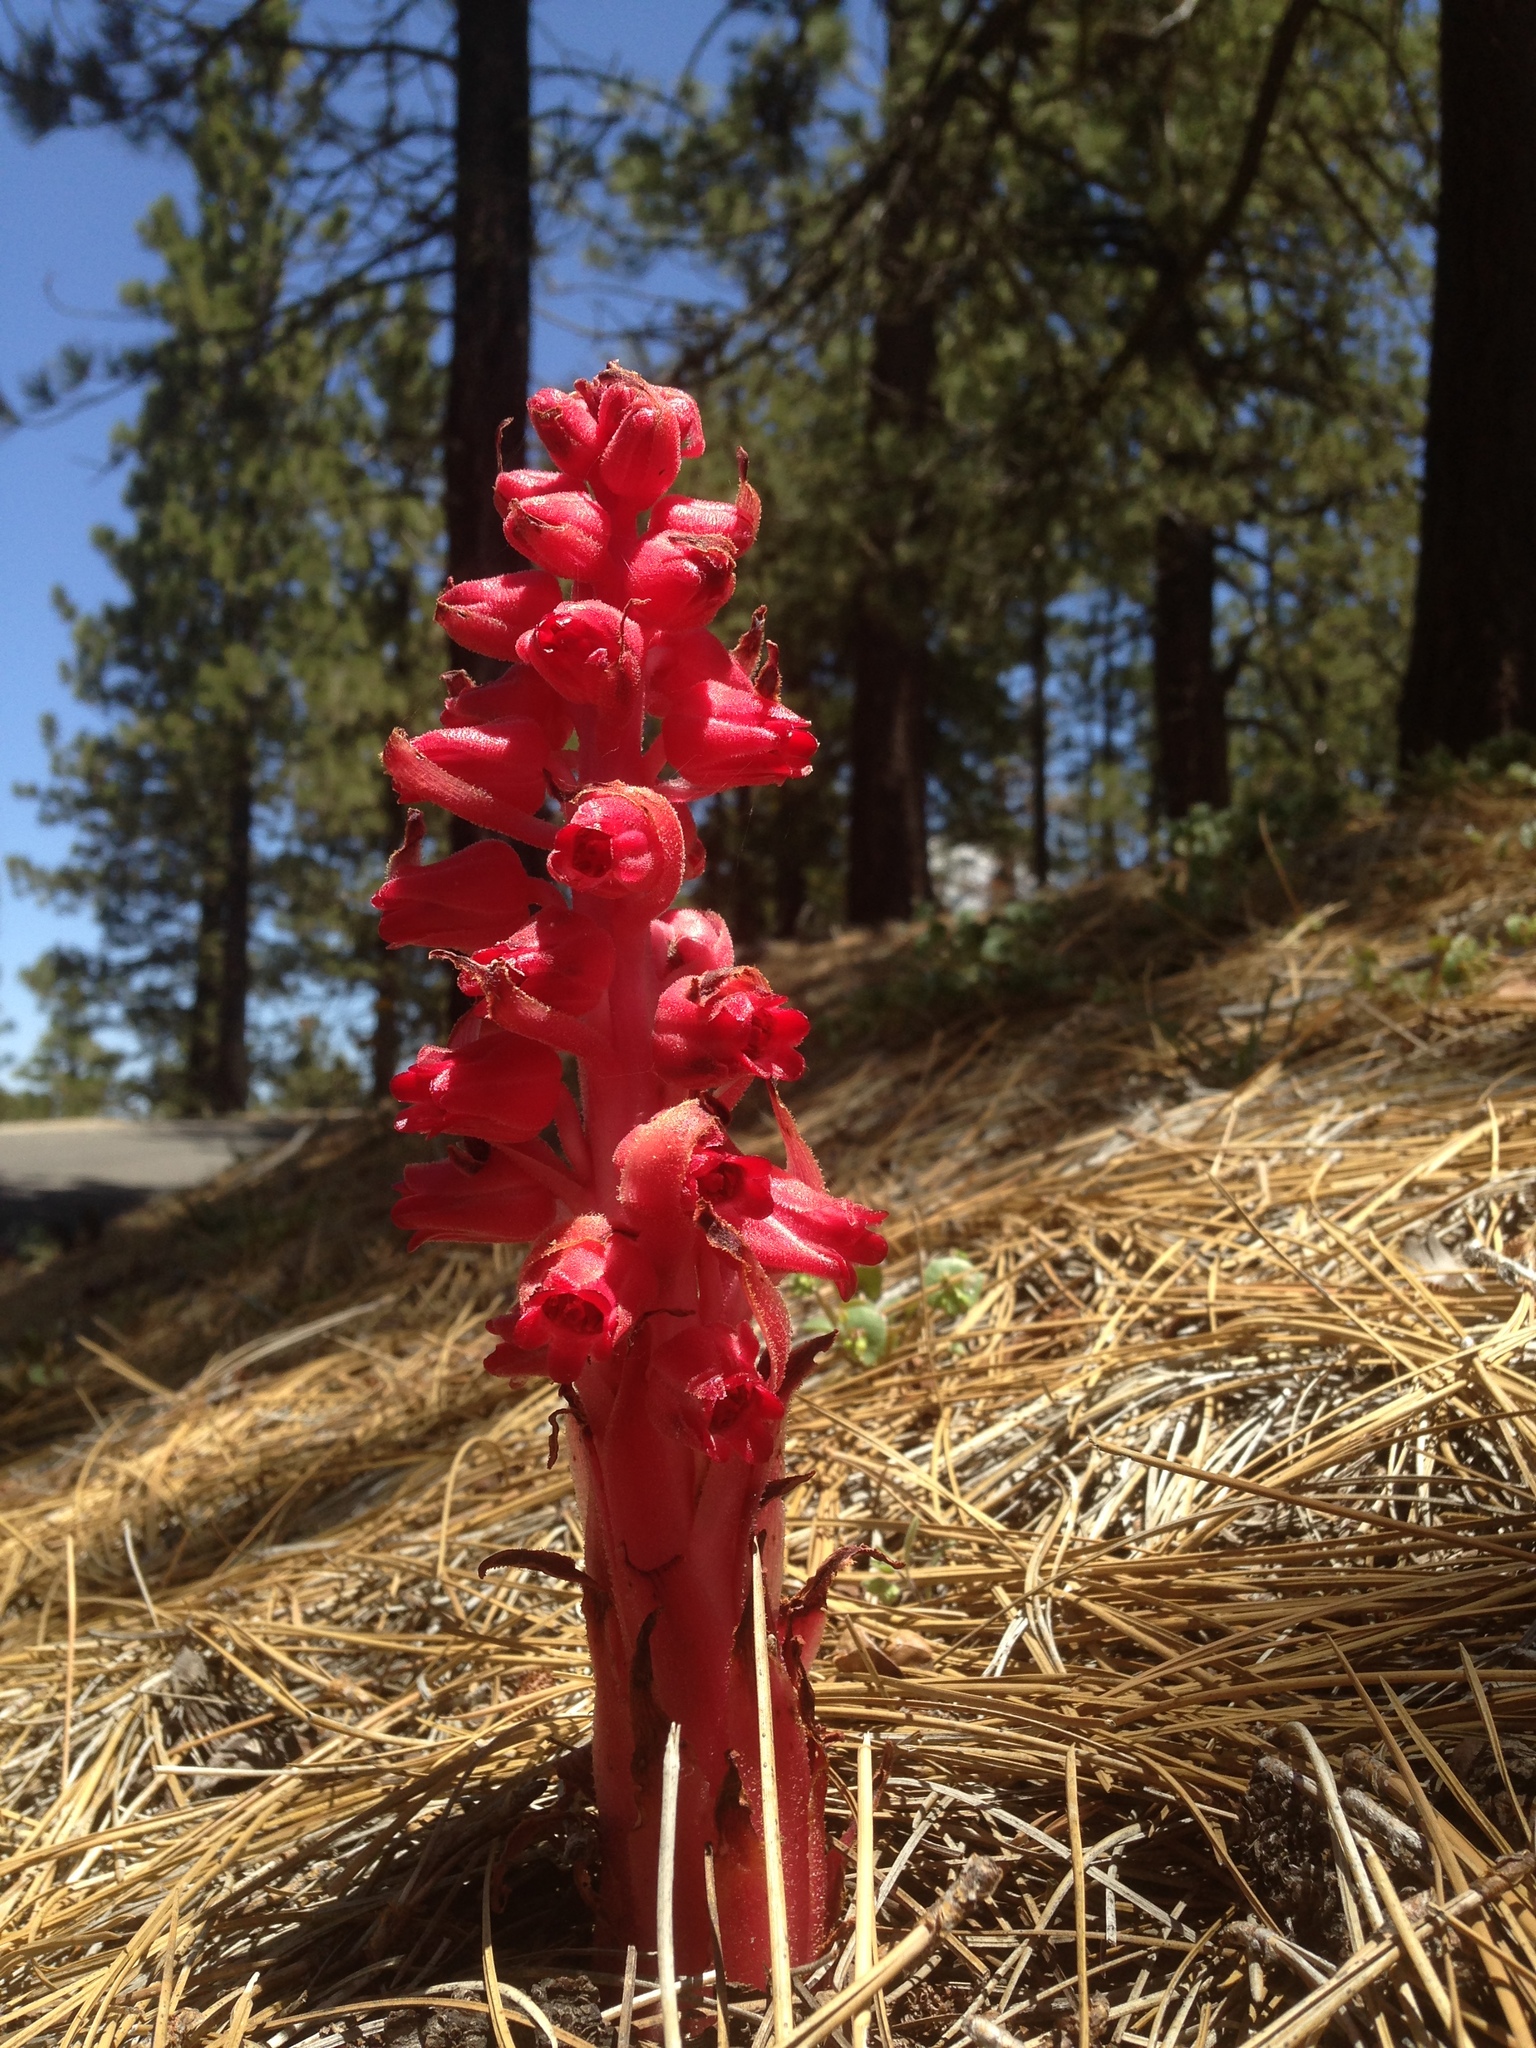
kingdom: Plantae
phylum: Tracheophyta
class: Magnoliopsida
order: Ericales
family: Ericaceae
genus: Sarcodes
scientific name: Sarcodes sanguinea
